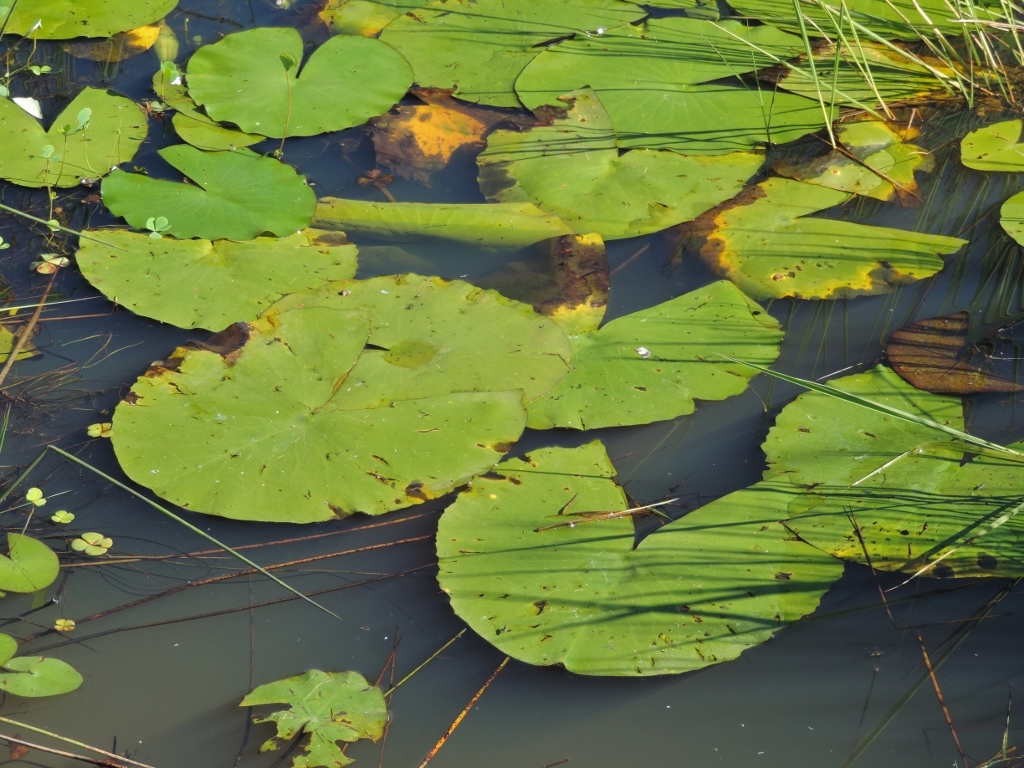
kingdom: Plantae
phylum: Tracheophyta
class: Magnoliopsida
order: Nymphaeales
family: Nymphaeaceae
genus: Nymphaea
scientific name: Nymphaea nouchali
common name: Blue lotus
